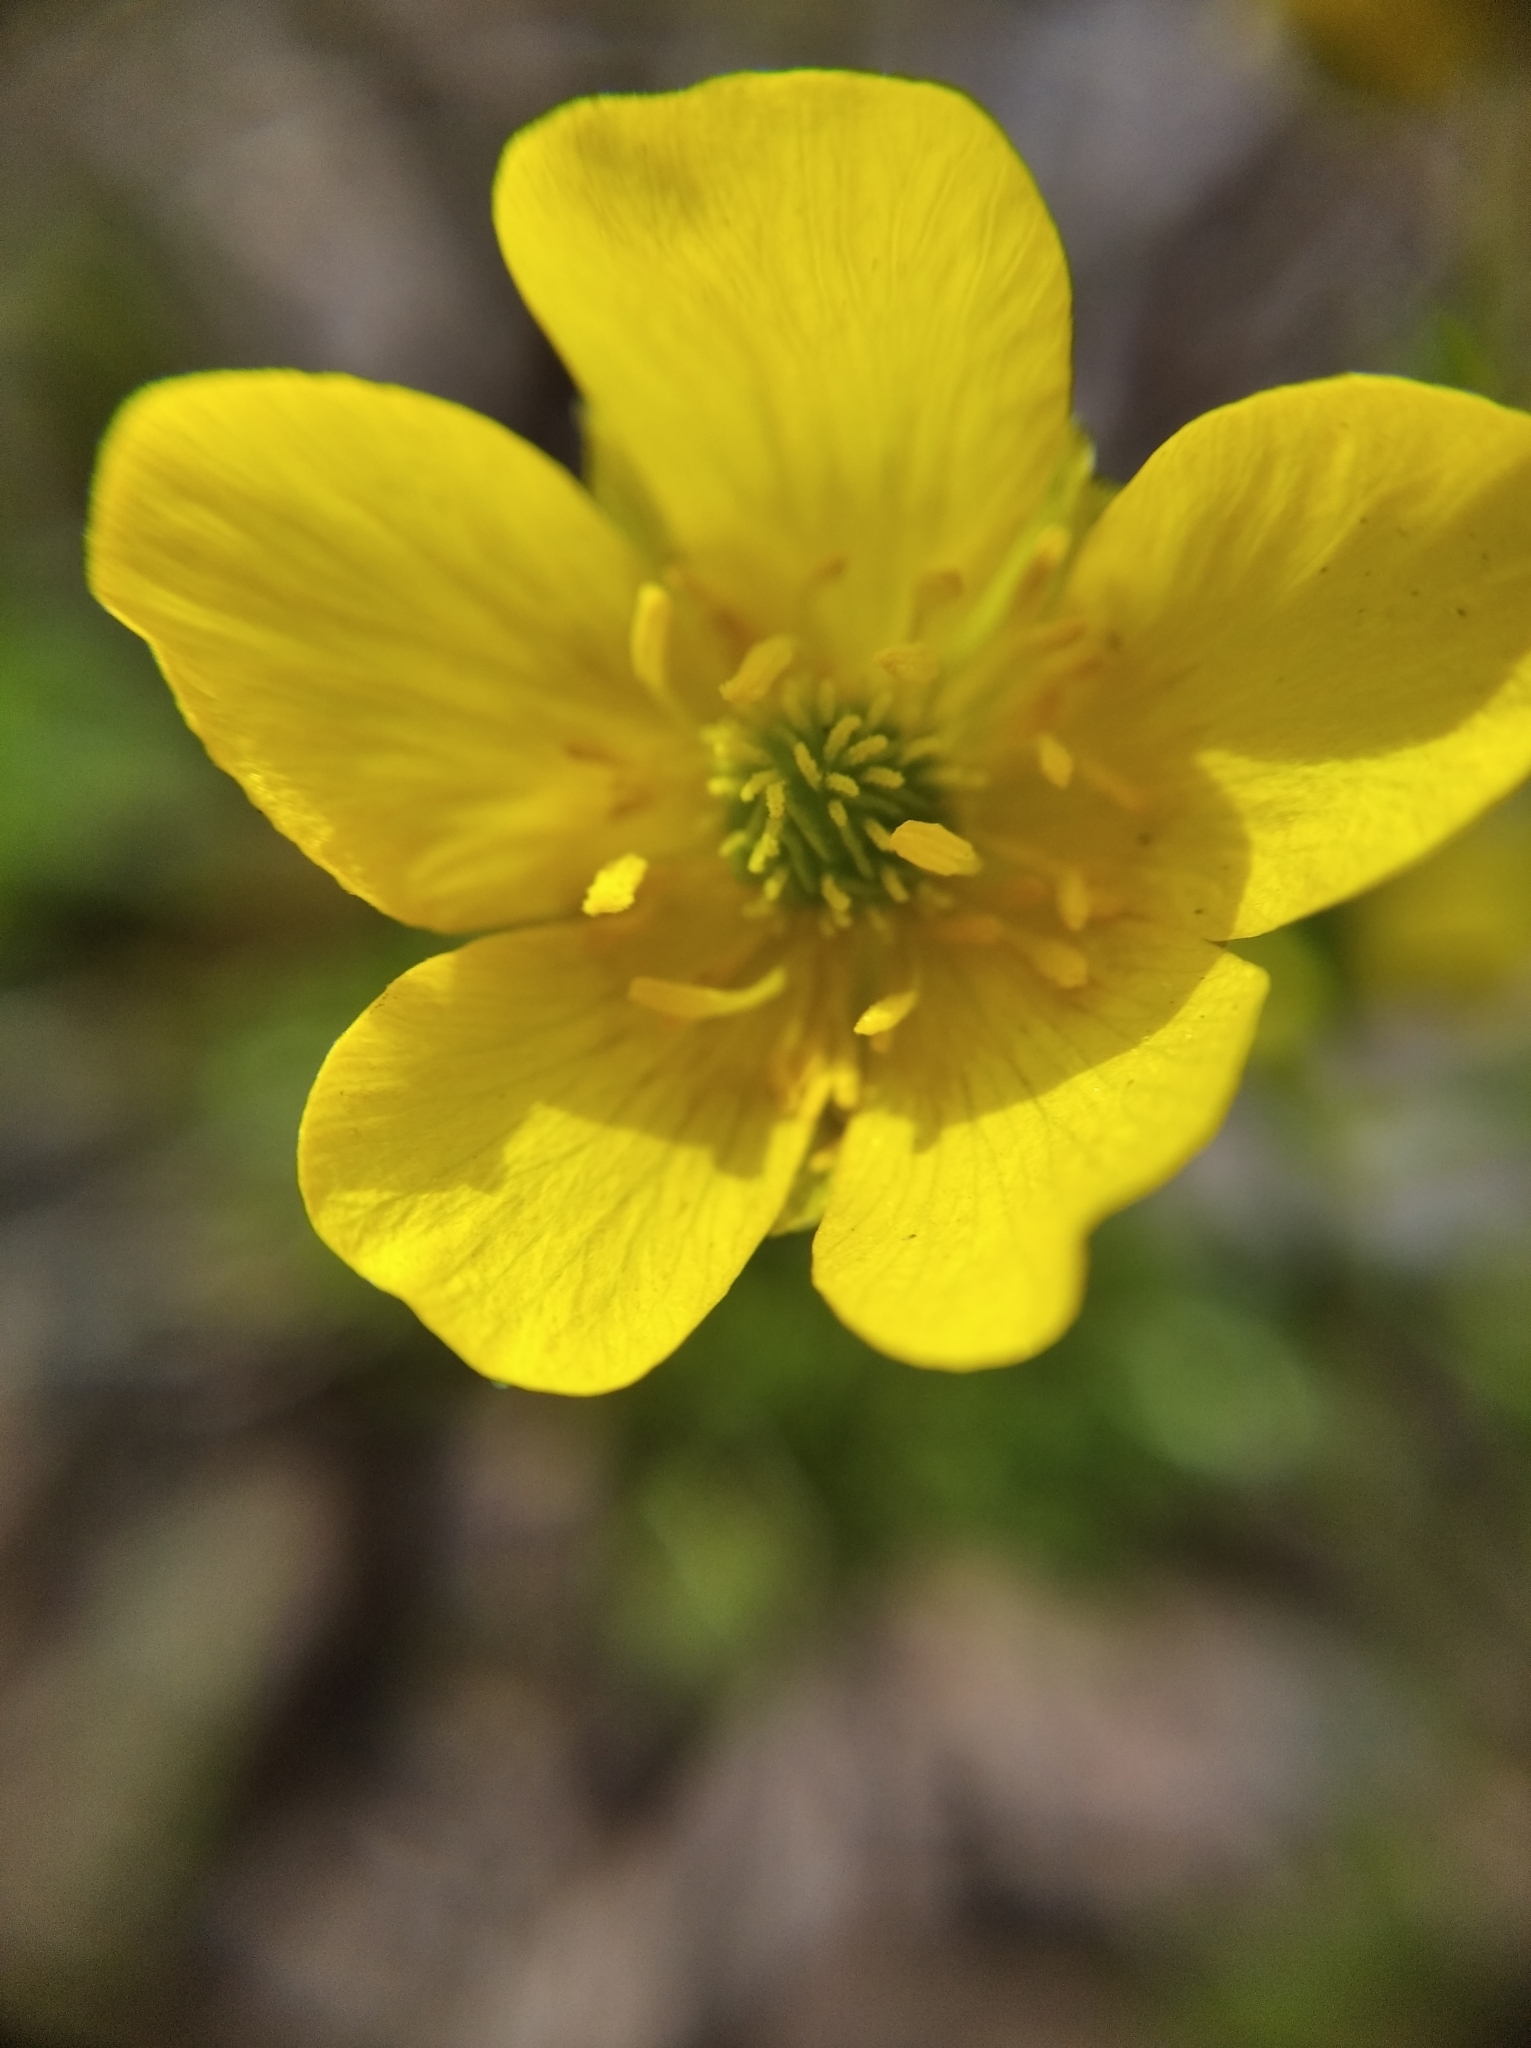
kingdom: Plantae
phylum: Tracheophyta
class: Magnoliopsida
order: Ranunculales
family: Ranunculaceae
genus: Ranunculus
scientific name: Ranunculus pedatus
